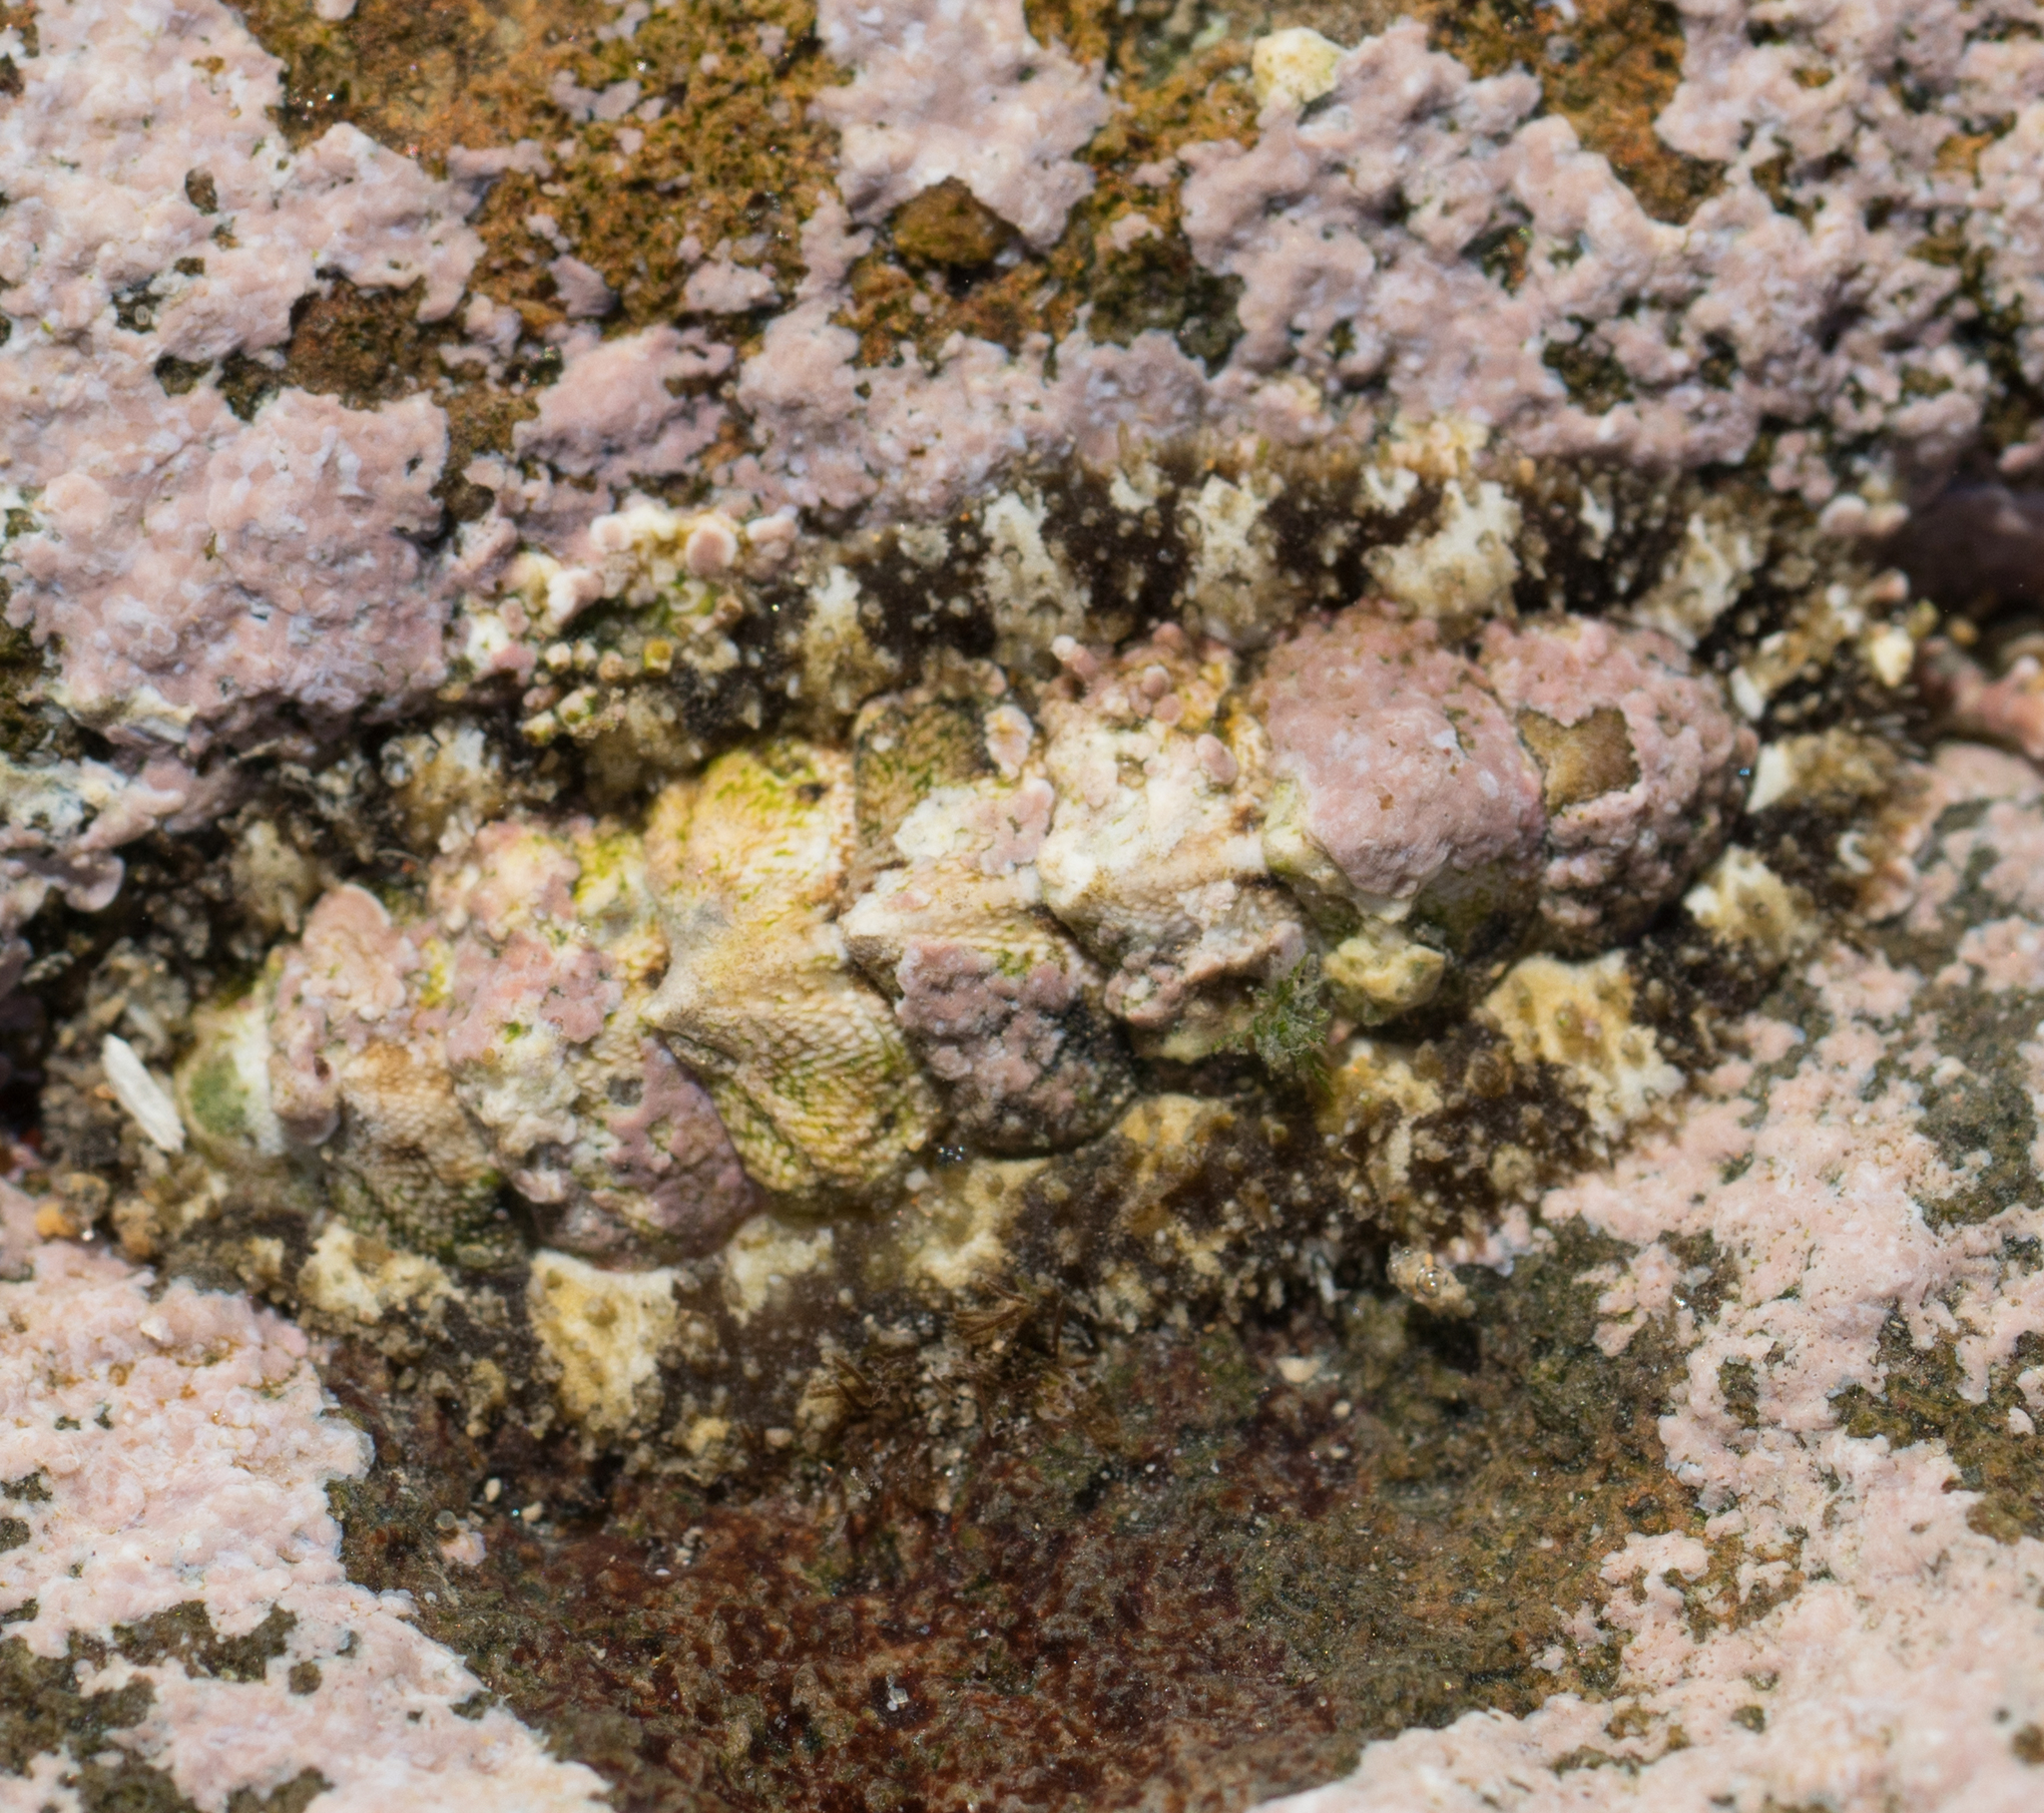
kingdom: Animalia
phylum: Mollusca
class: Polyplacophora
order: Chitonida
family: Tonicellidae
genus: Nuttallina
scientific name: Nuttallina californica
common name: California nuttall chiton
